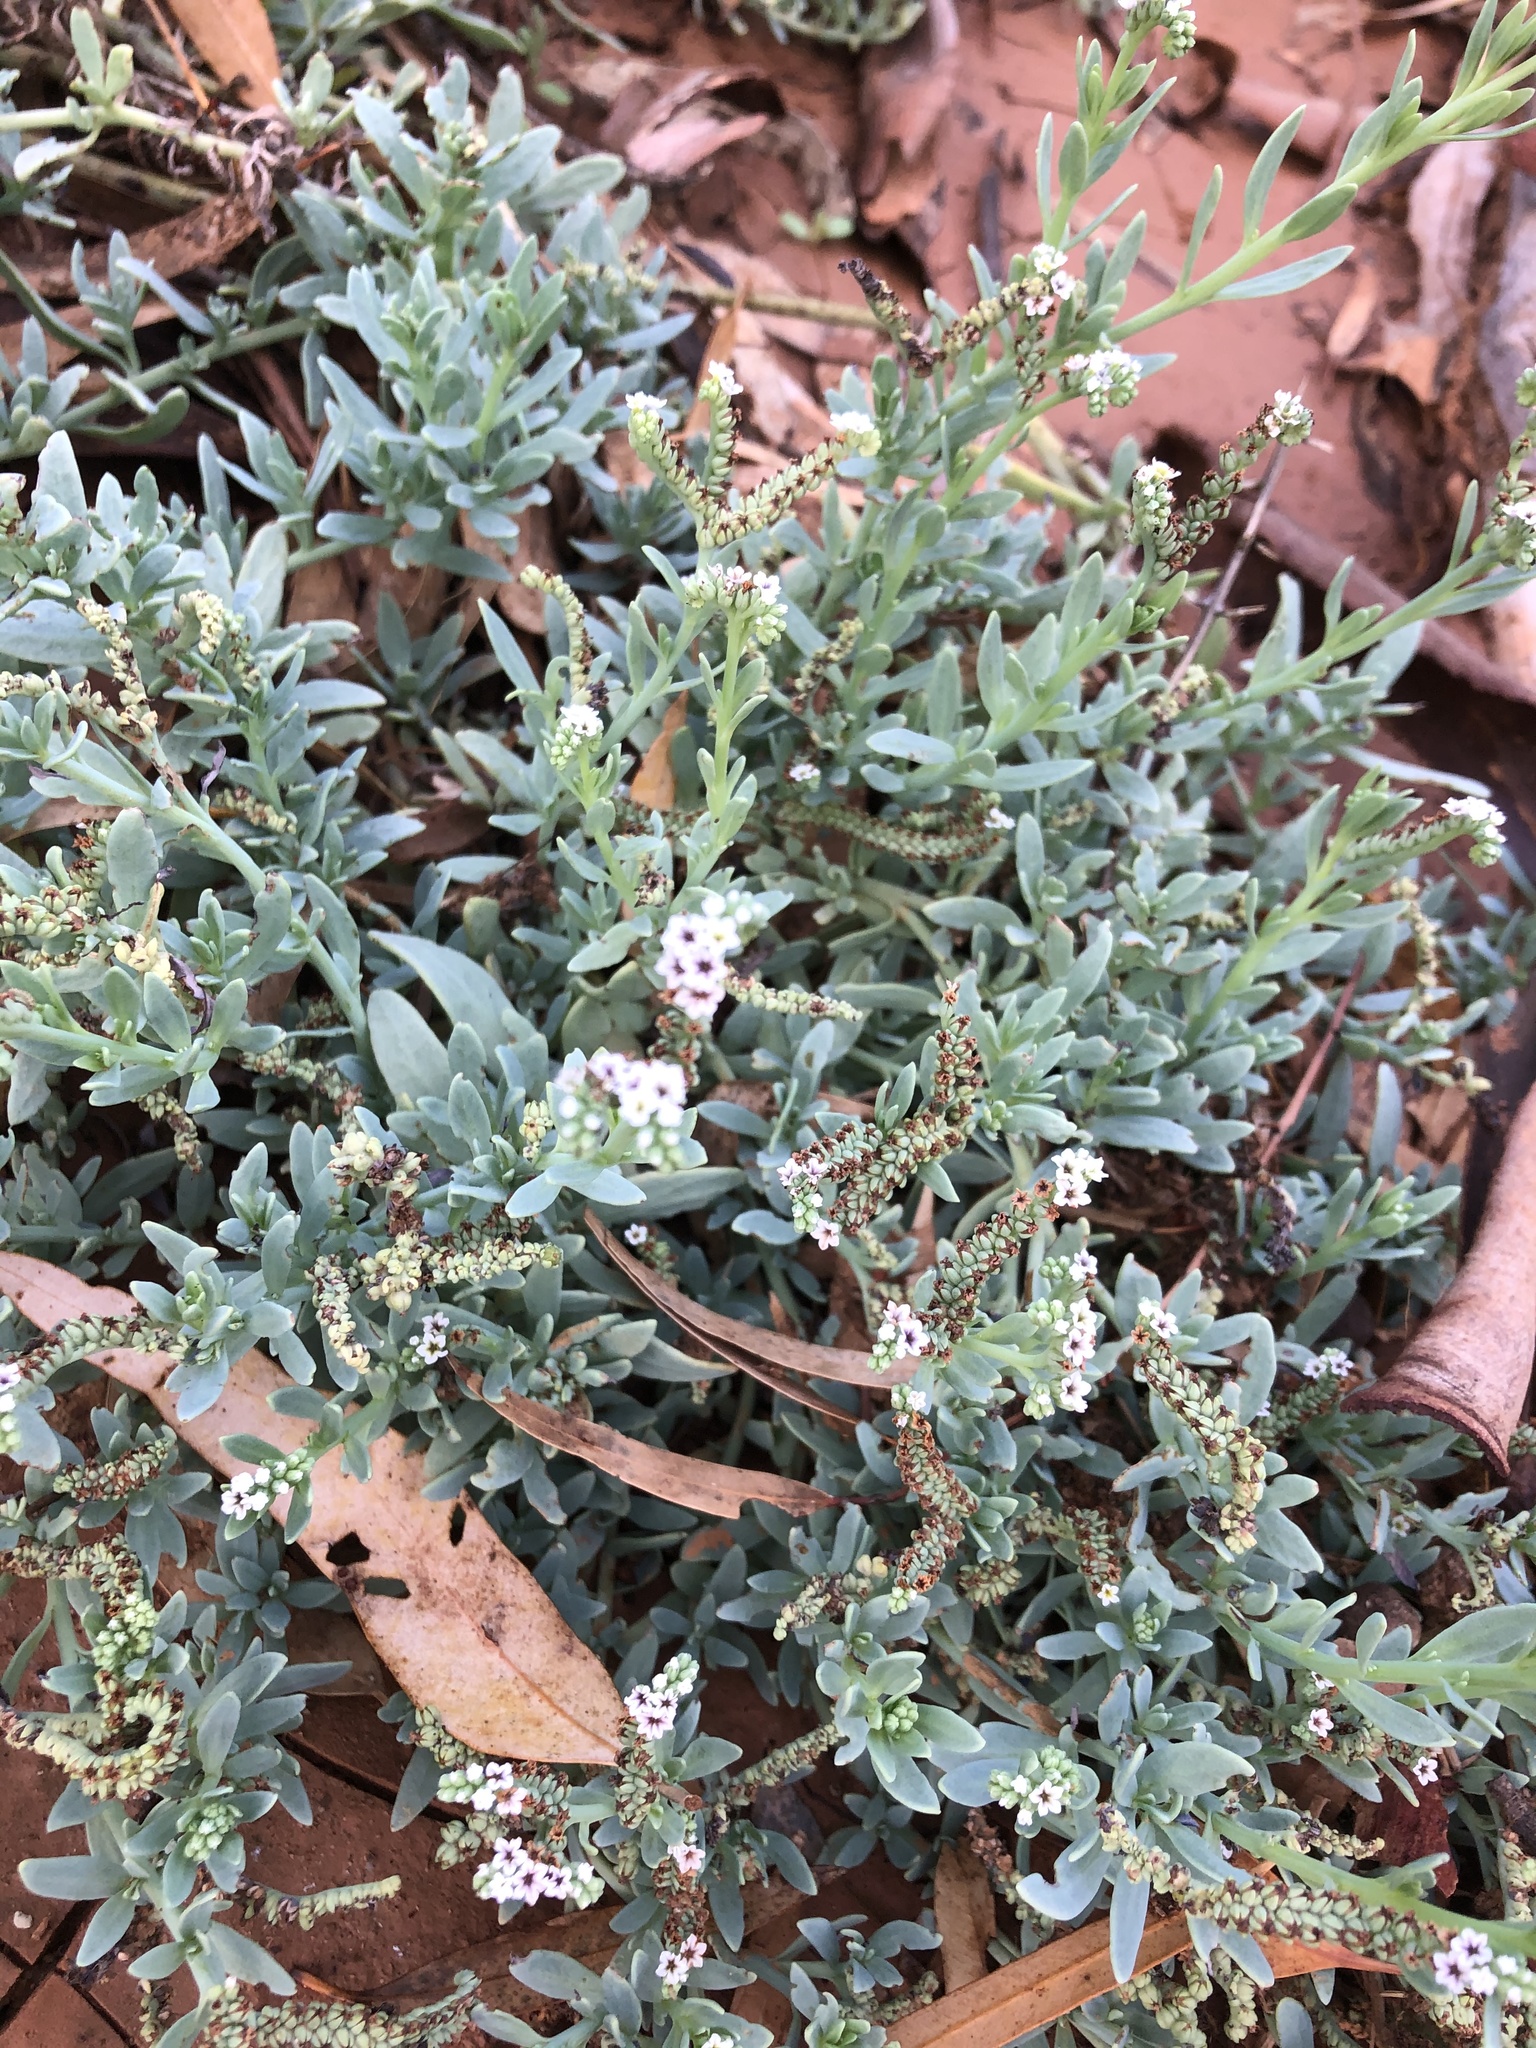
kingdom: Plantae
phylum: Tracheophyta
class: Magnoliopsida
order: Boraginales
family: Heliotropiaceae
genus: Heliotropium
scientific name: Heliotropium curassavicum
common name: Seaside heliotrope
